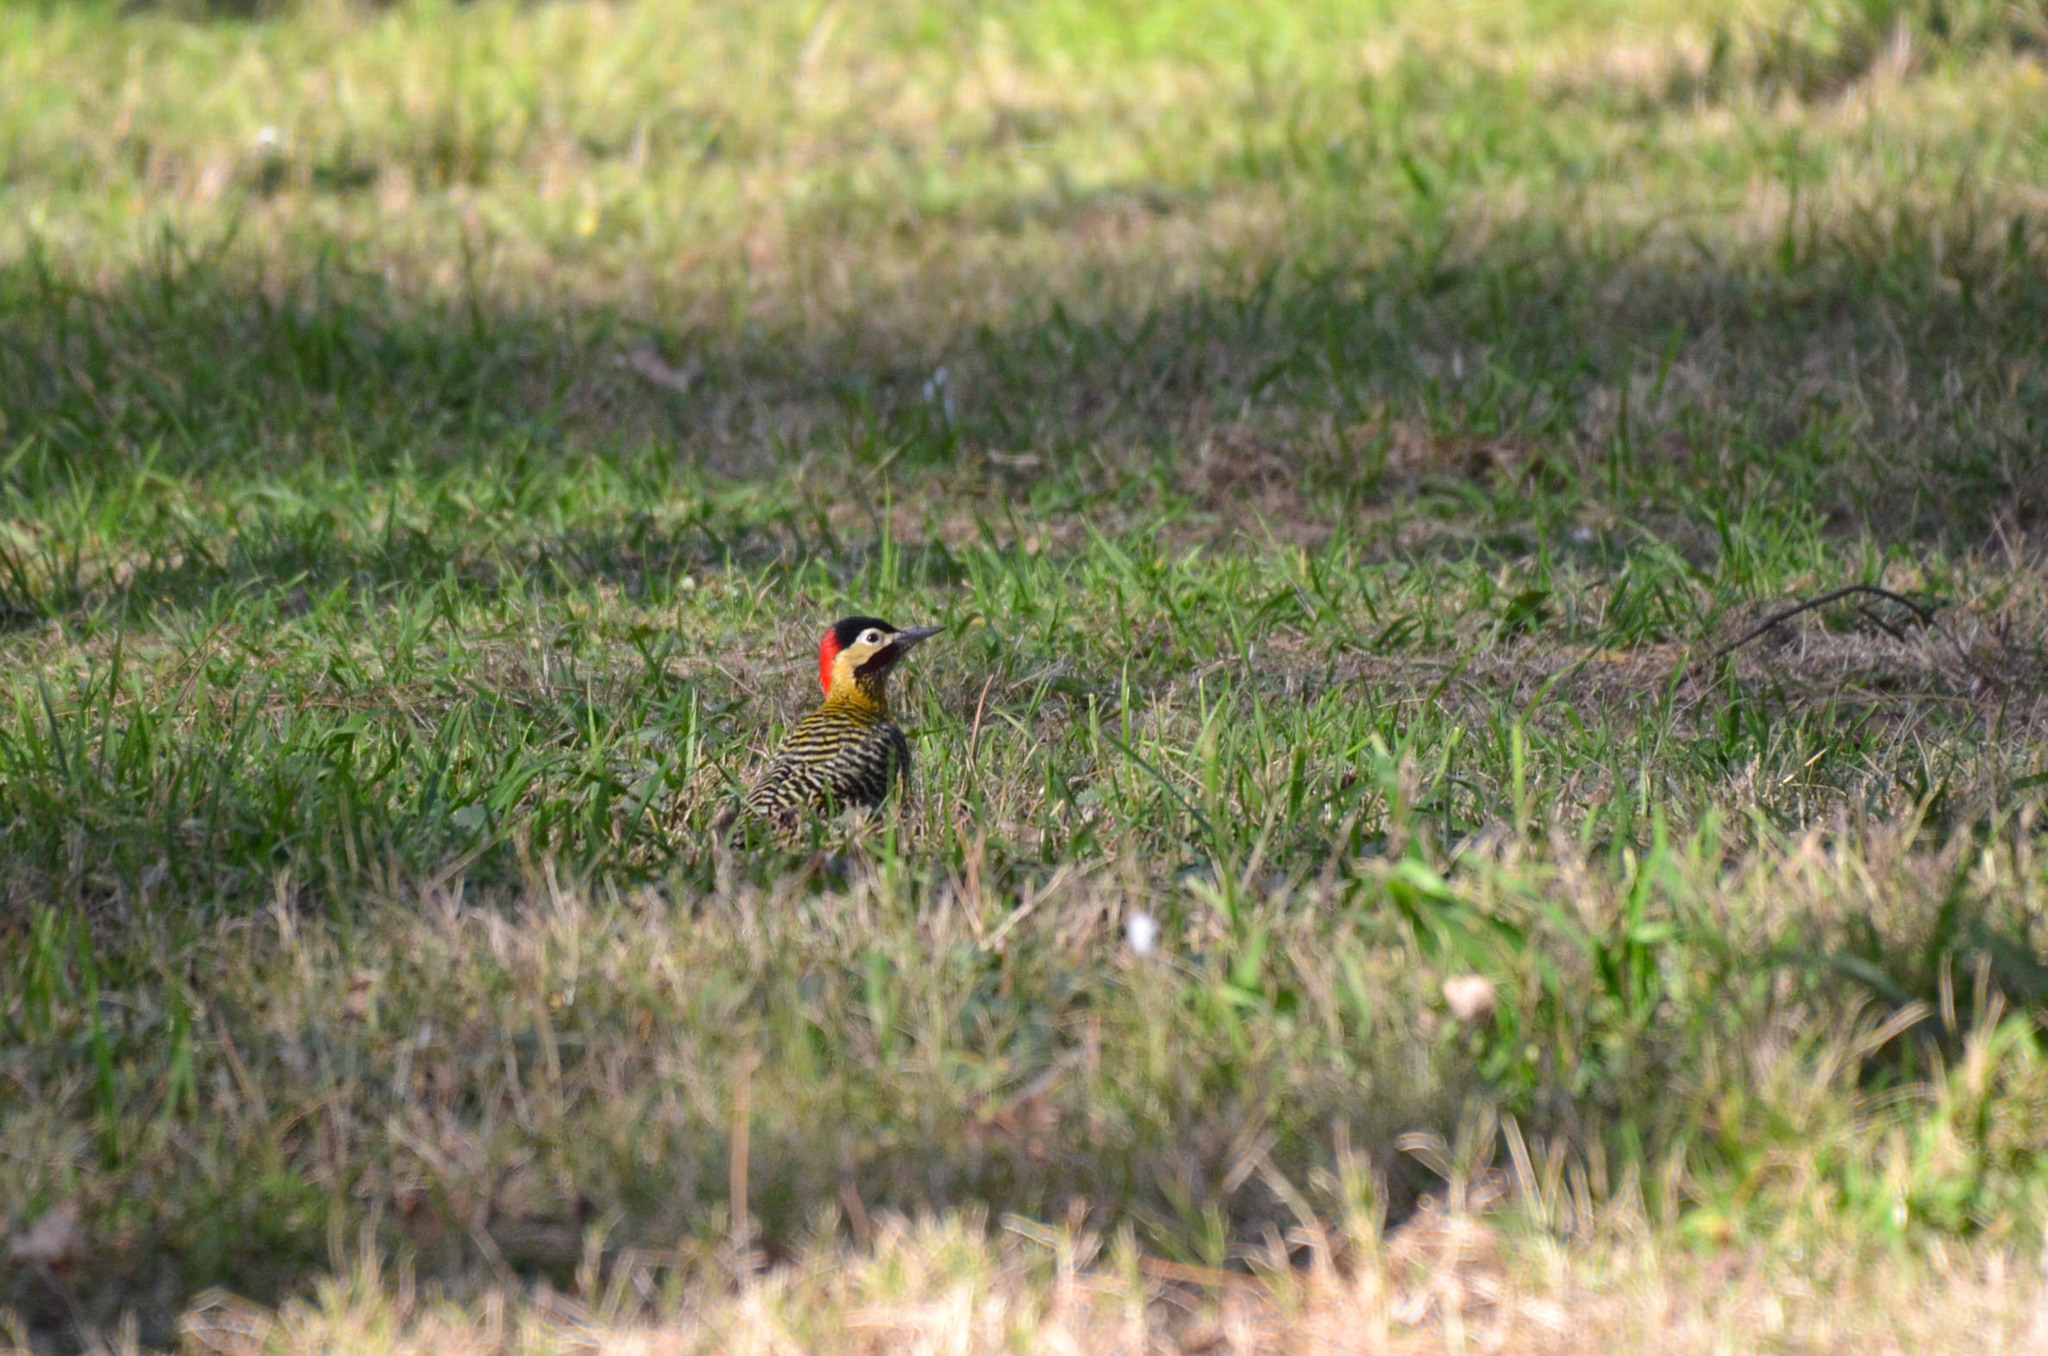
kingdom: Animalia
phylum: Chordata
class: Aves
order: Piciformes
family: Picidae
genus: Colaptes
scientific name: Colaptes melanochloros
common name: Green-barred woodpecker
